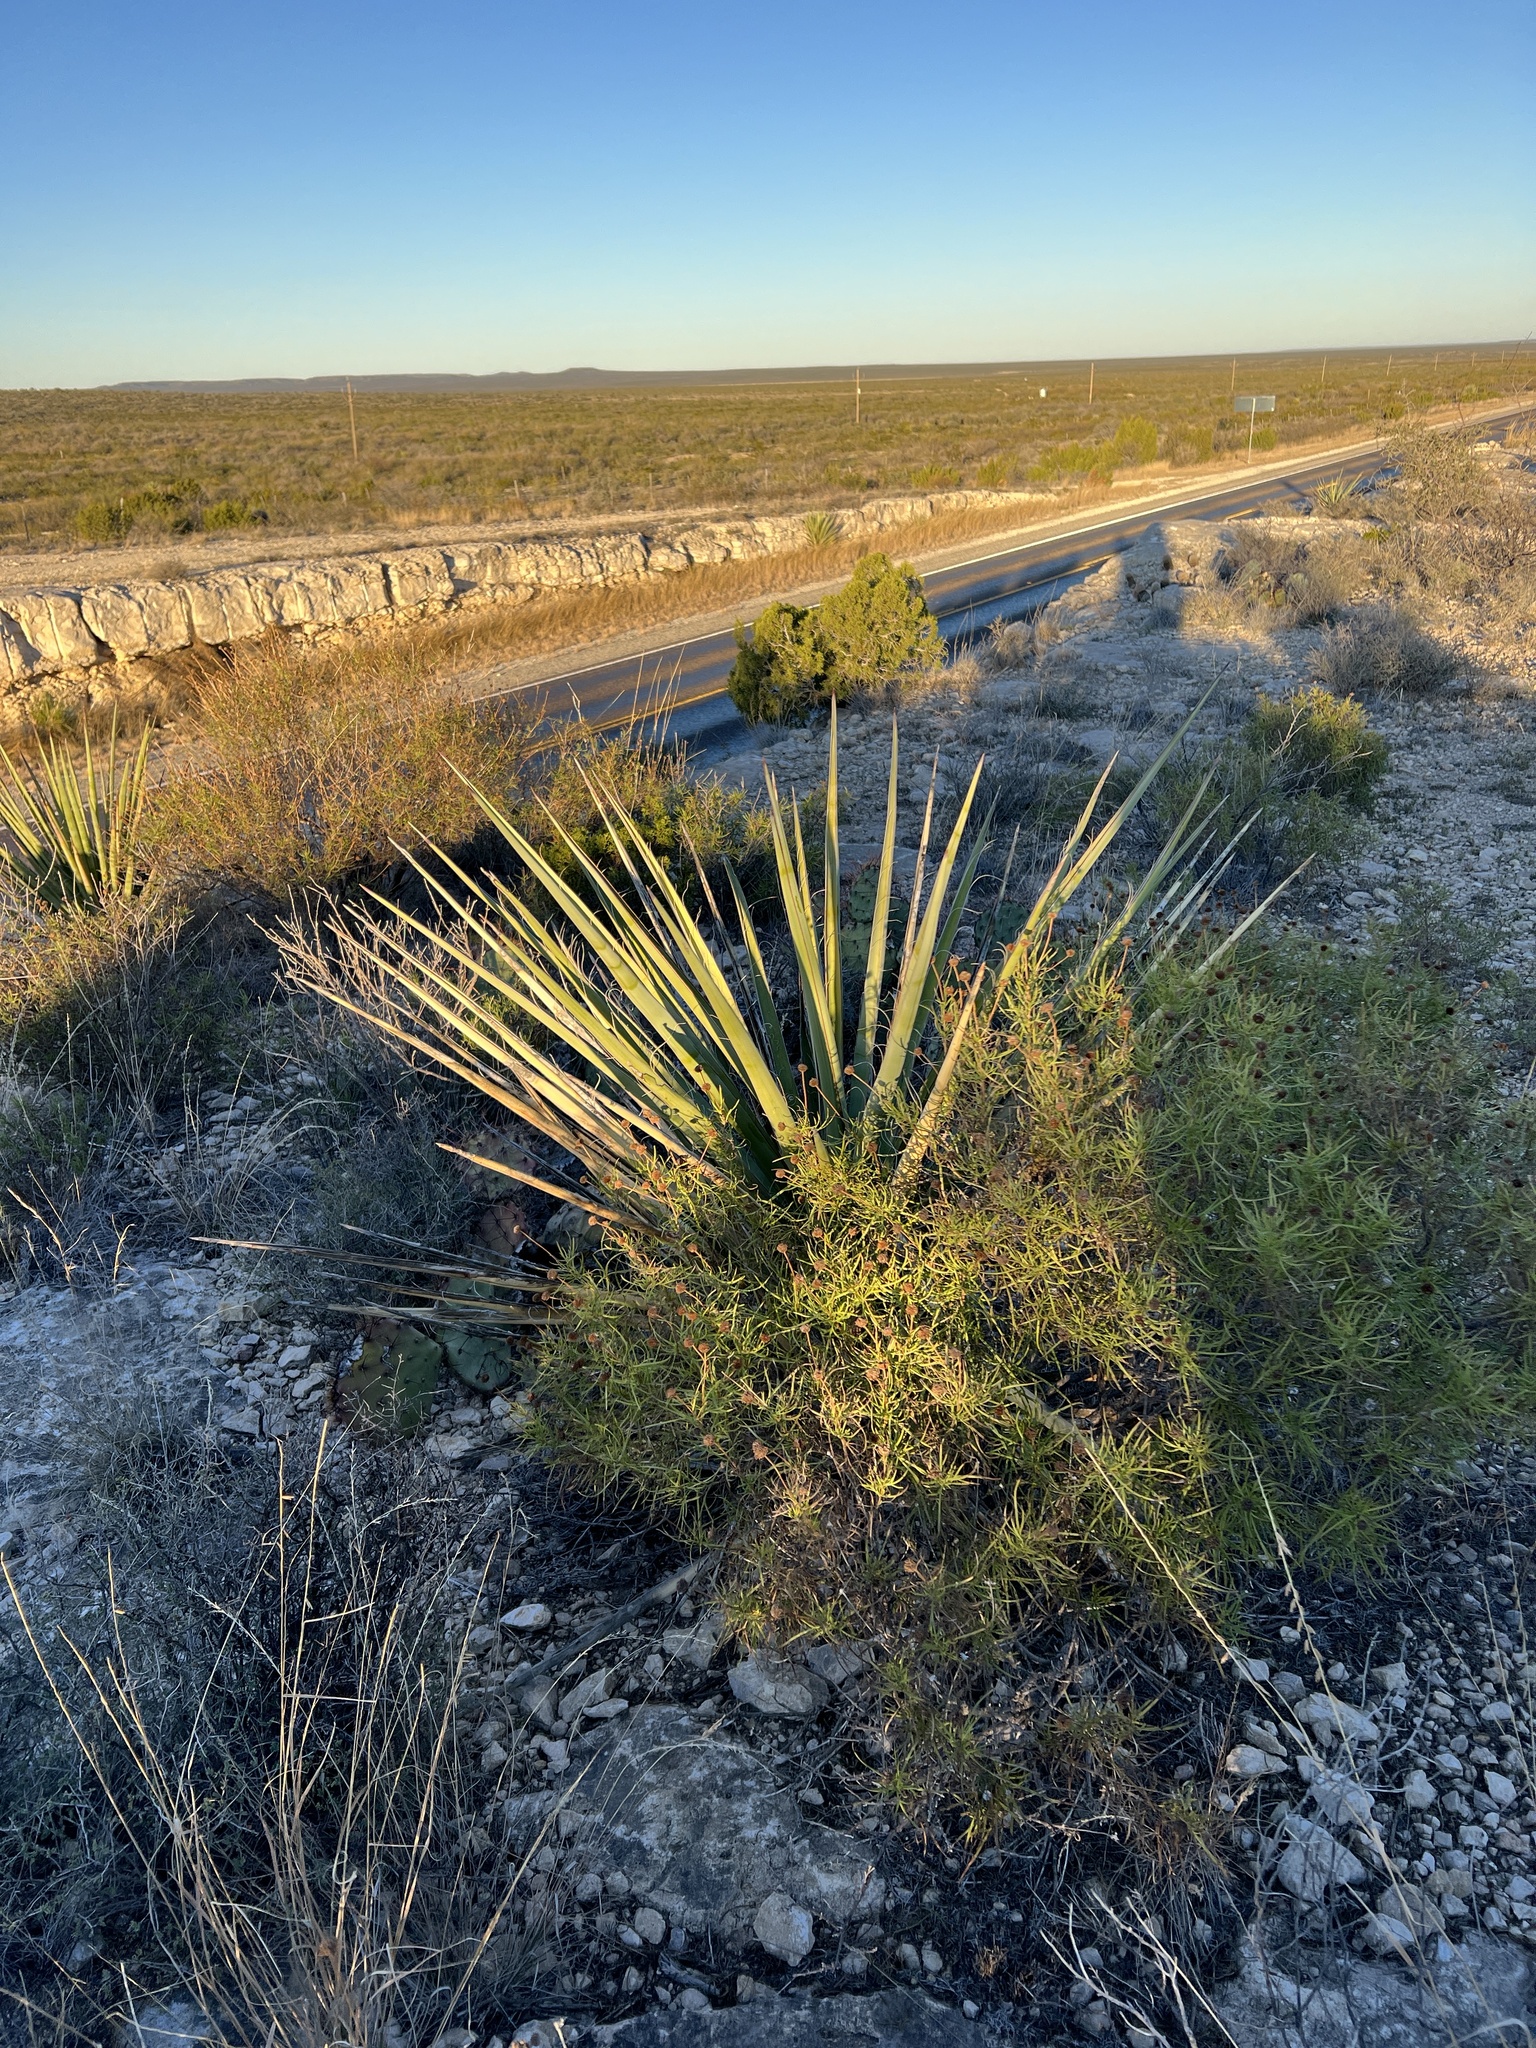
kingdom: Plantae
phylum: Tracheophyta
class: Liliopsida
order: Asparagales
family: Asparagaceae
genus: Yucca
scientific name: Yucca treculiana
